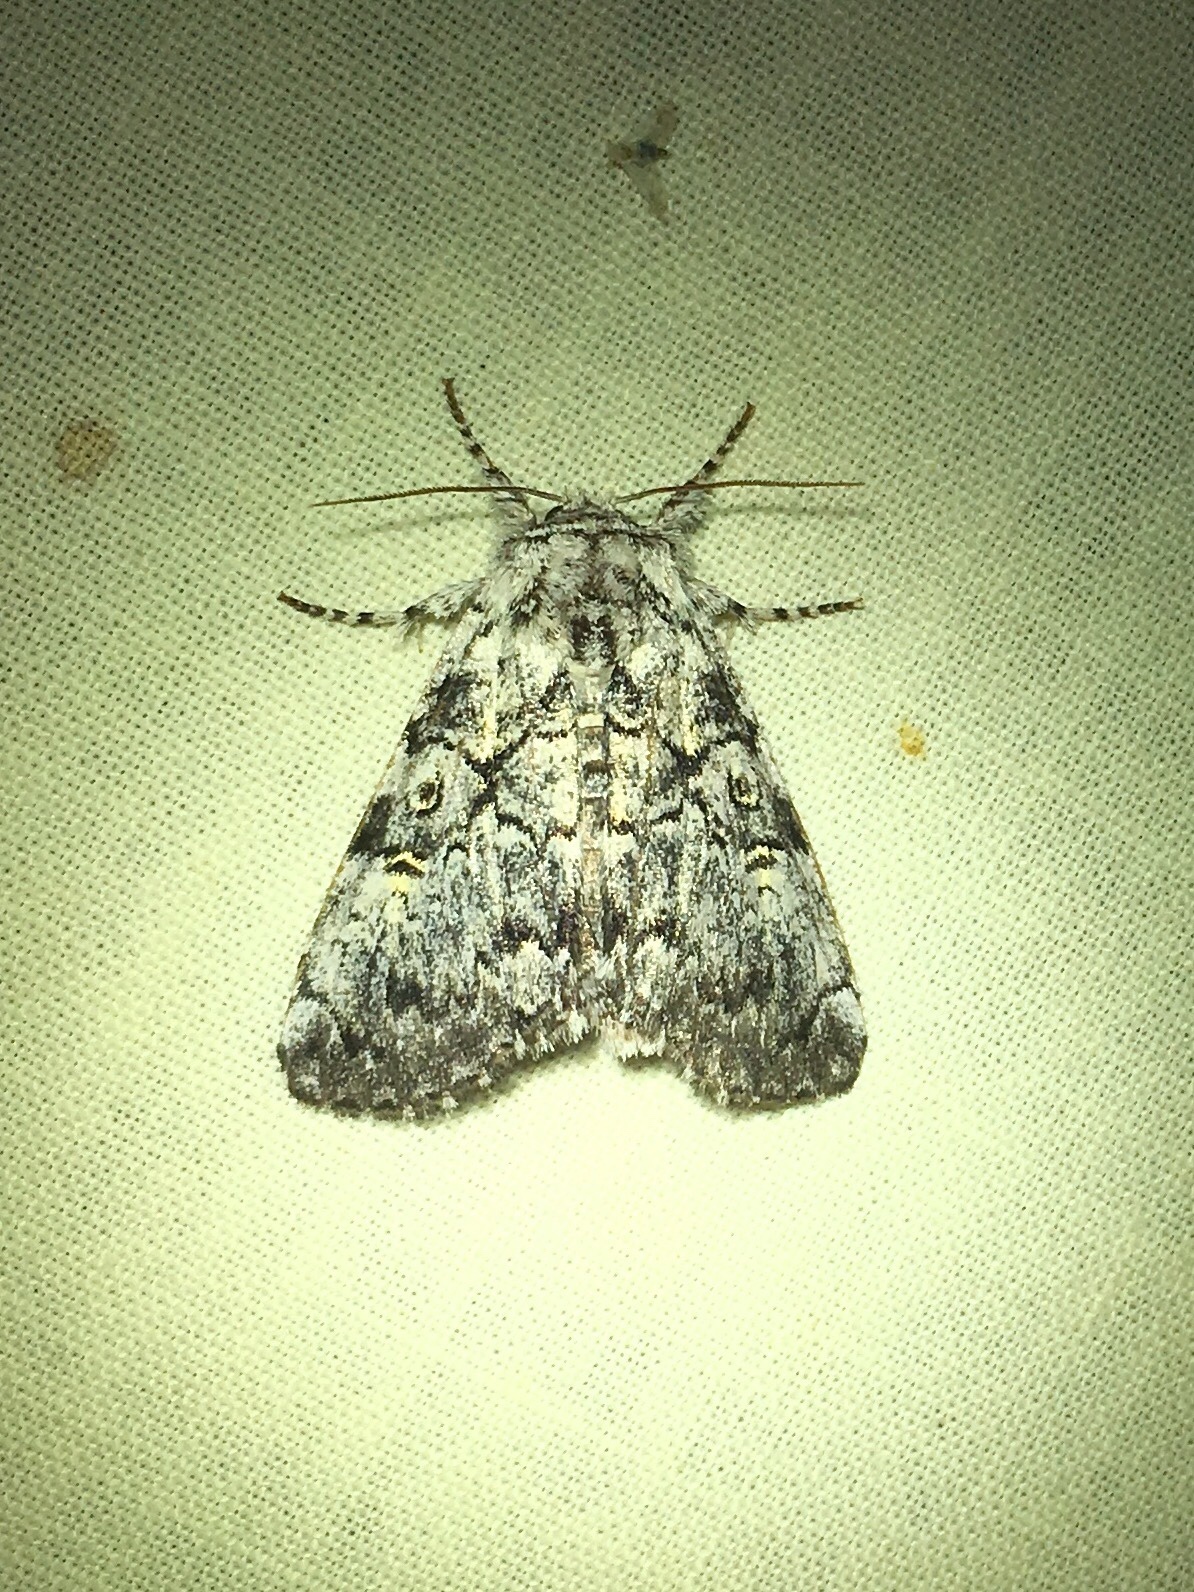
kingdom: Animalia
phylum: Arthropoda
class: Insecta
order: Lepidoptera
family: Noctuidae
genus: Charadra
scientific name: Charadra deridens
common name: Marbled tuffet
